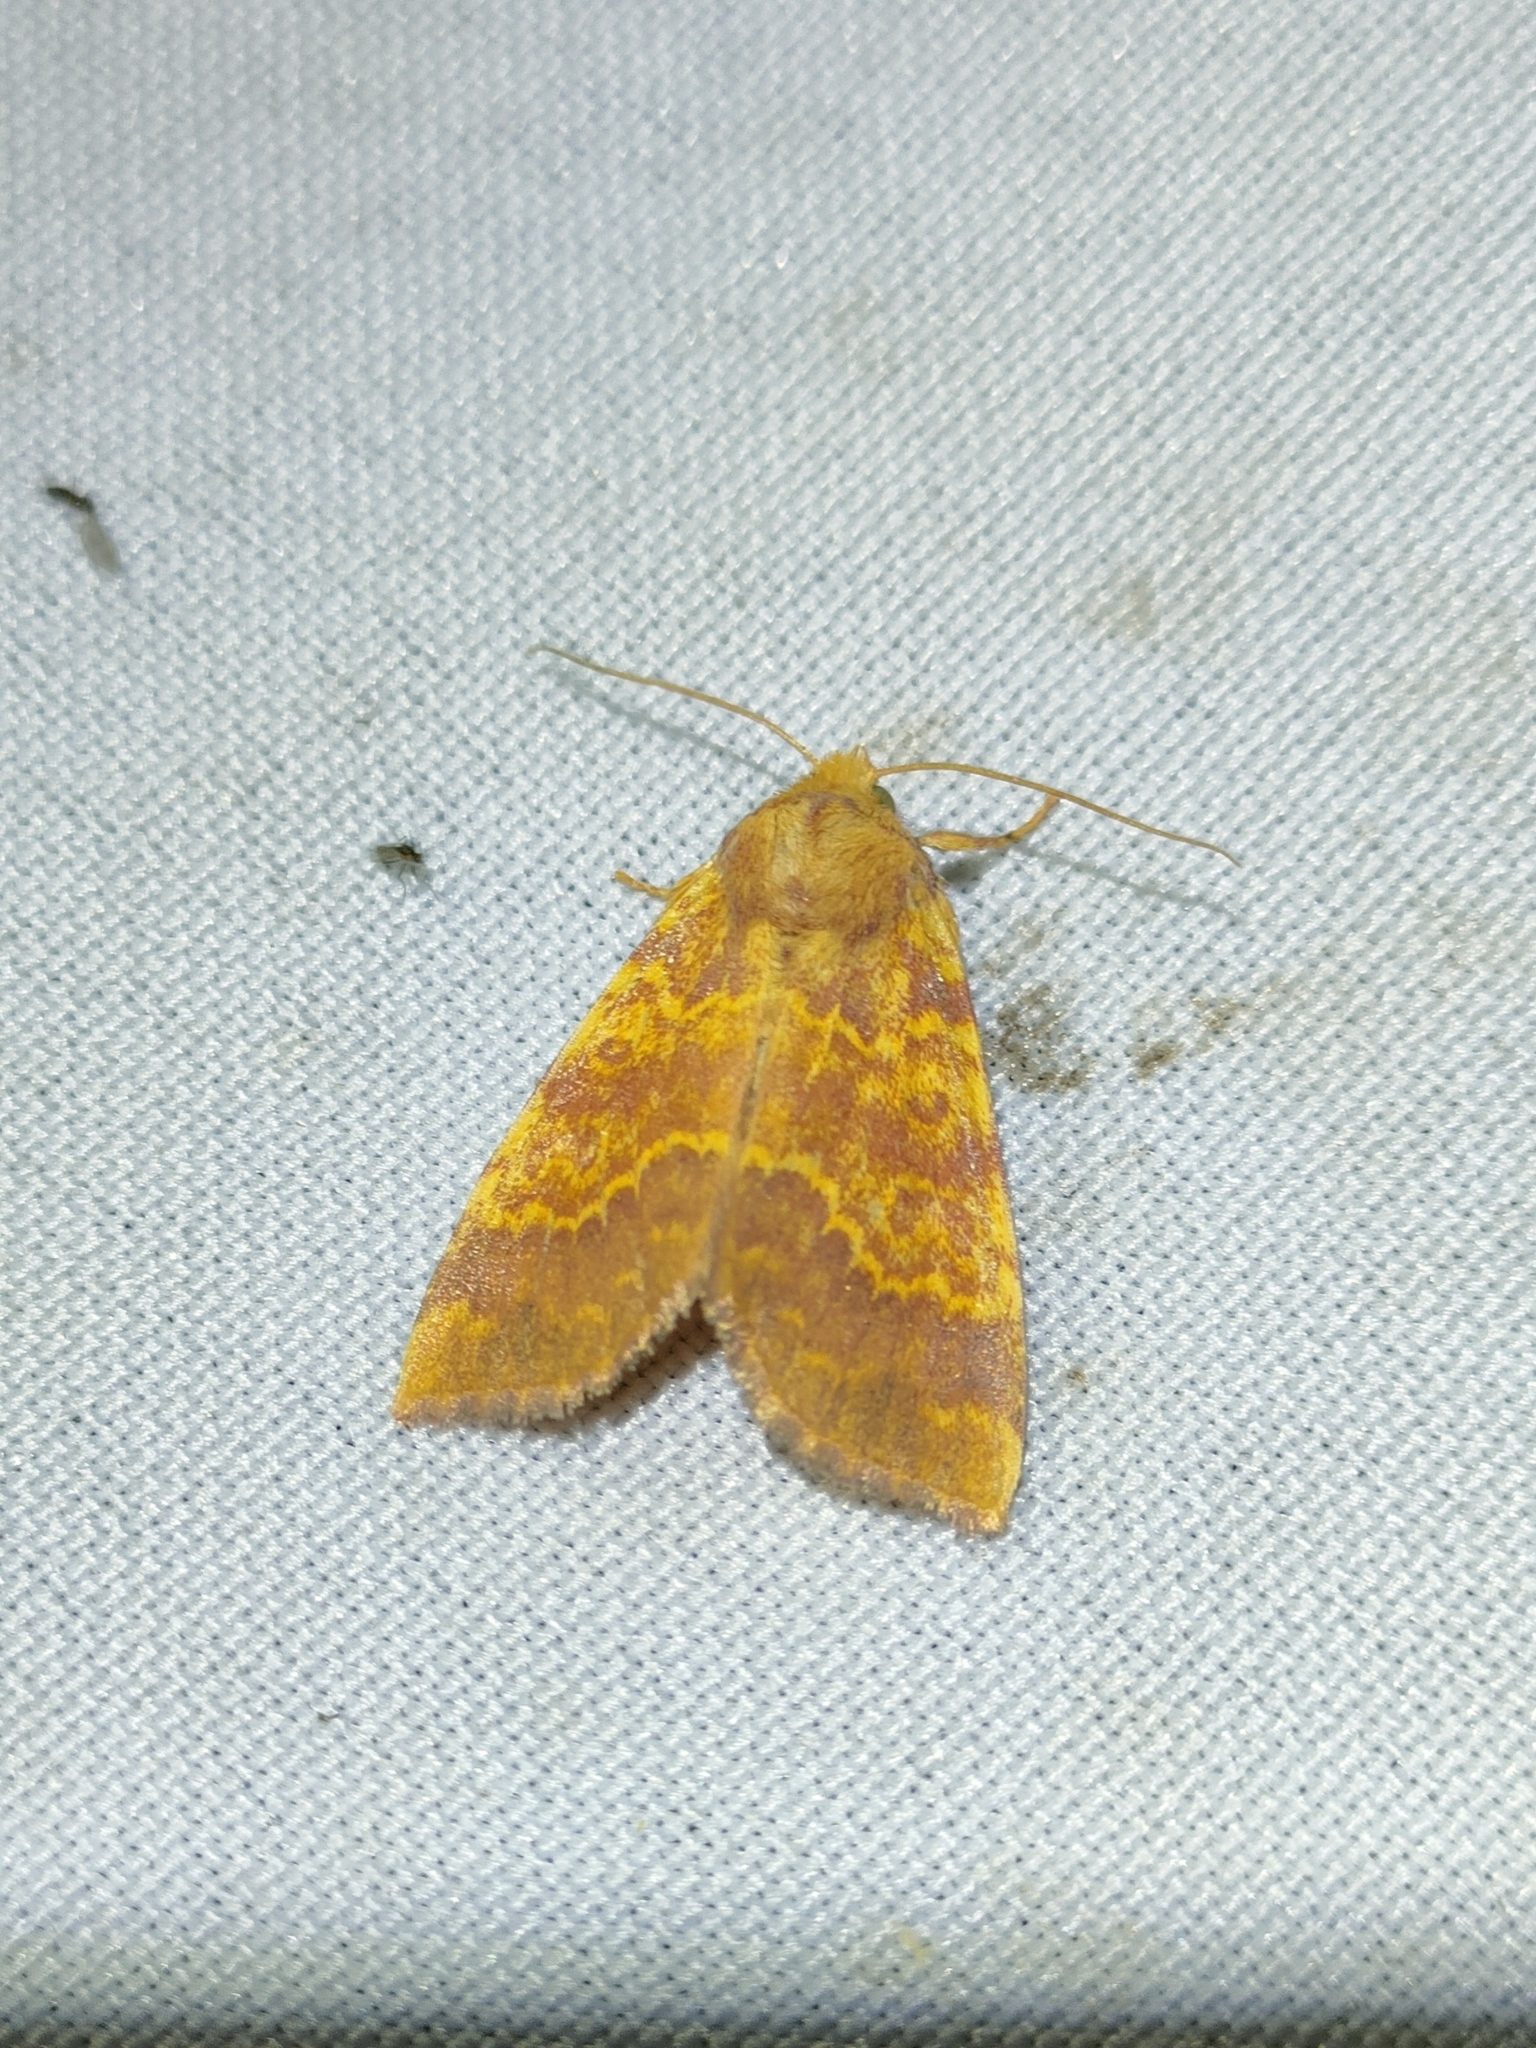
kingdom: Animalia
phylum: Arthropoda
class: Insecta
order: Lepidoptera
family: Noctuidae
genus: Tiliacea
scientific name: Tiliacea aurago
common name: Barred sallow
